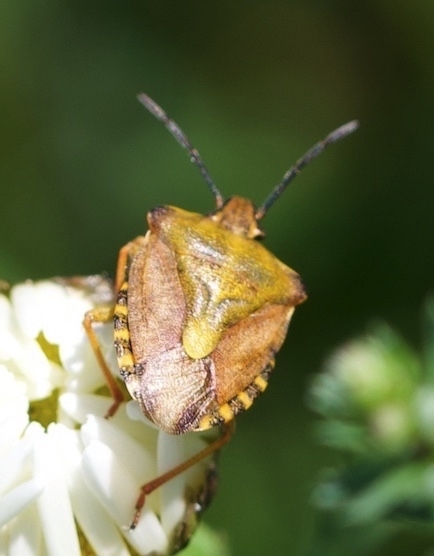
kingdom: Animalia
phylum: Arthropoda
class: Insecta
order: Hemiptera
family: Pentatomidae
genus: Carpocoris
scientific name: Carpocoris purpureipennis
